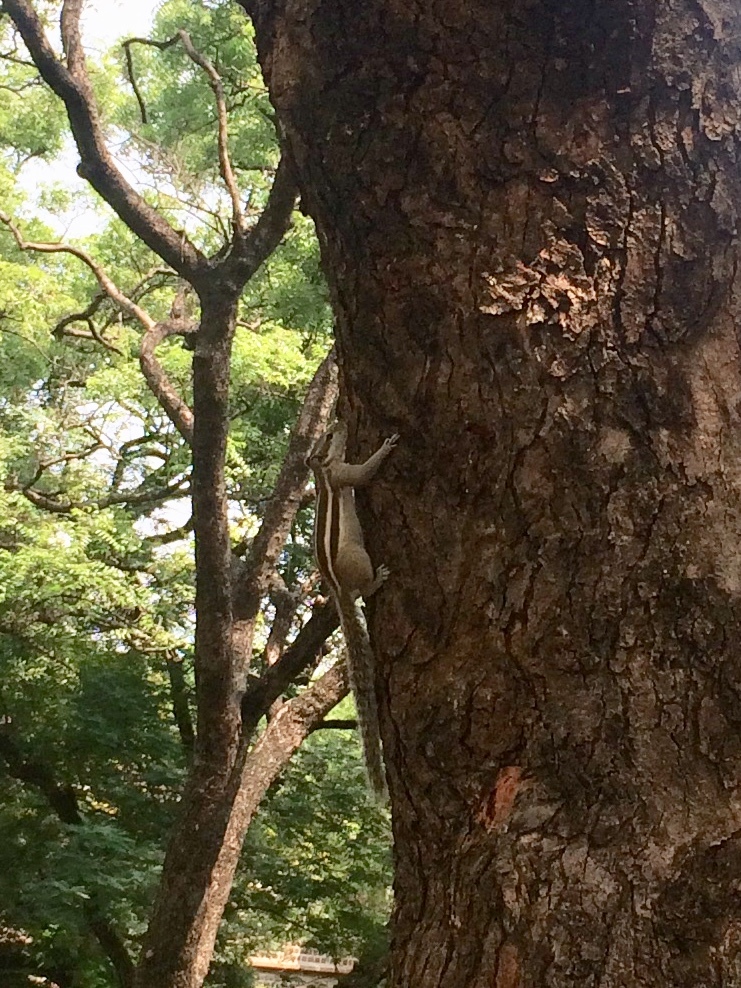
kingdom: Animalia
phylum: Chordata
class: Mammalia
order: Rodentia
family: Sciuridae
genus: Funambulus
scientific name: Funambulus pennantii
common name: Northern palm squirrel
